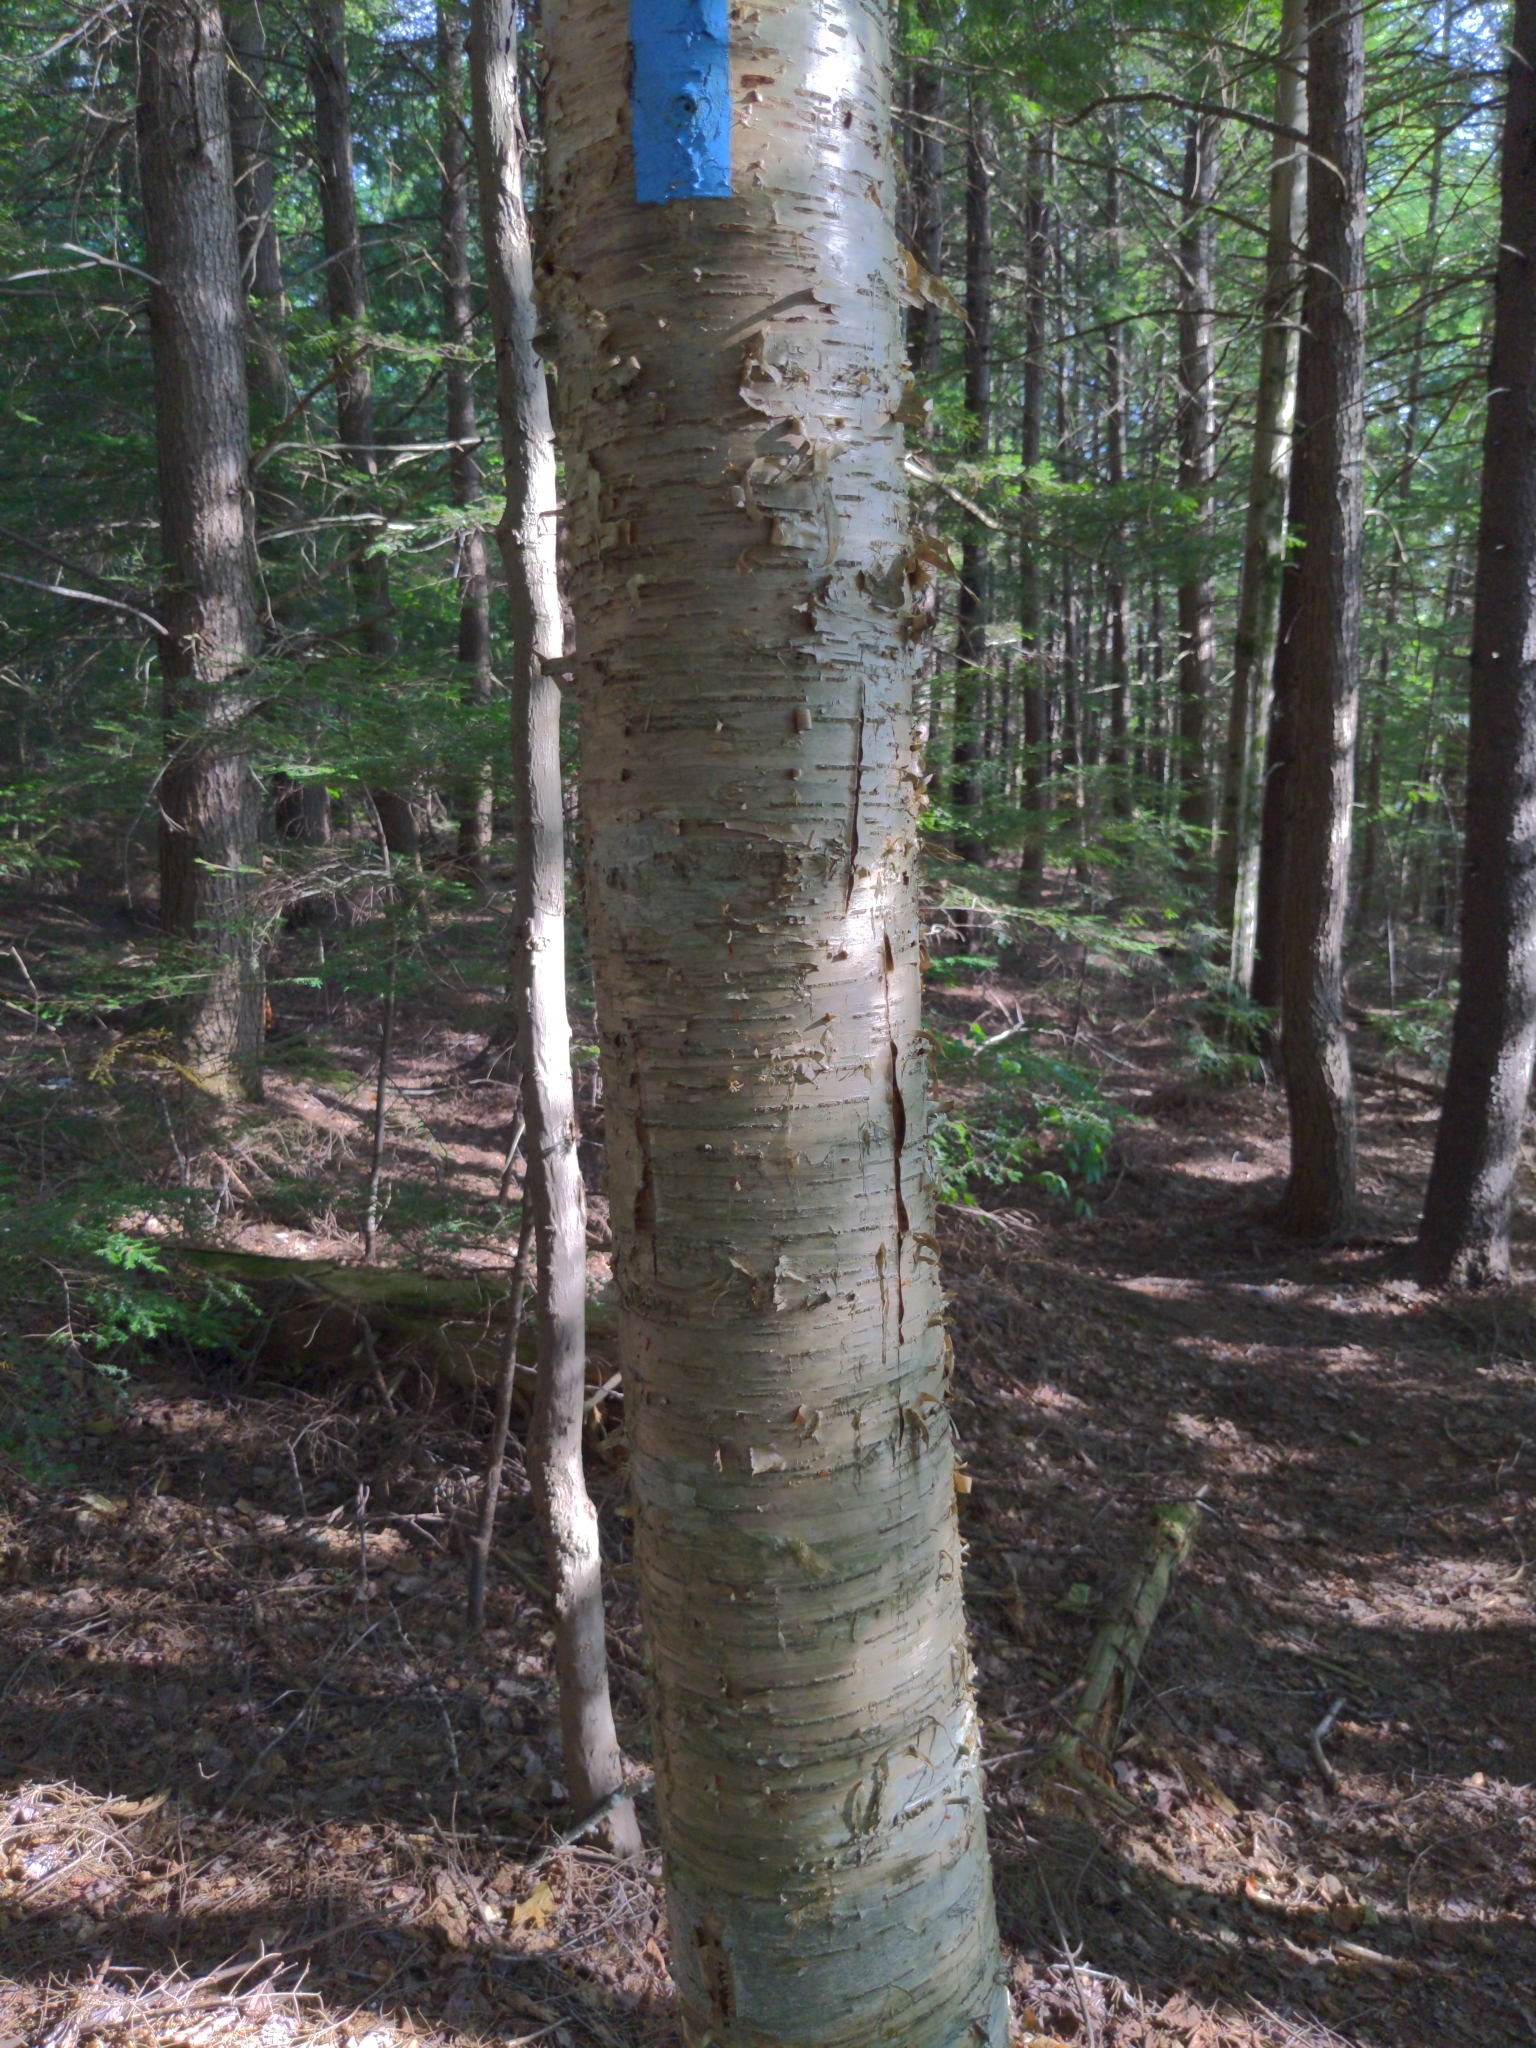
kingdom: Plantae
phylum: Tracheophyta
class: Magnoliopsida
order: Fagales
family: Betulaceae
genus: Betula
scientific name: Betula alleghaniensis
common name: Yellow birch
